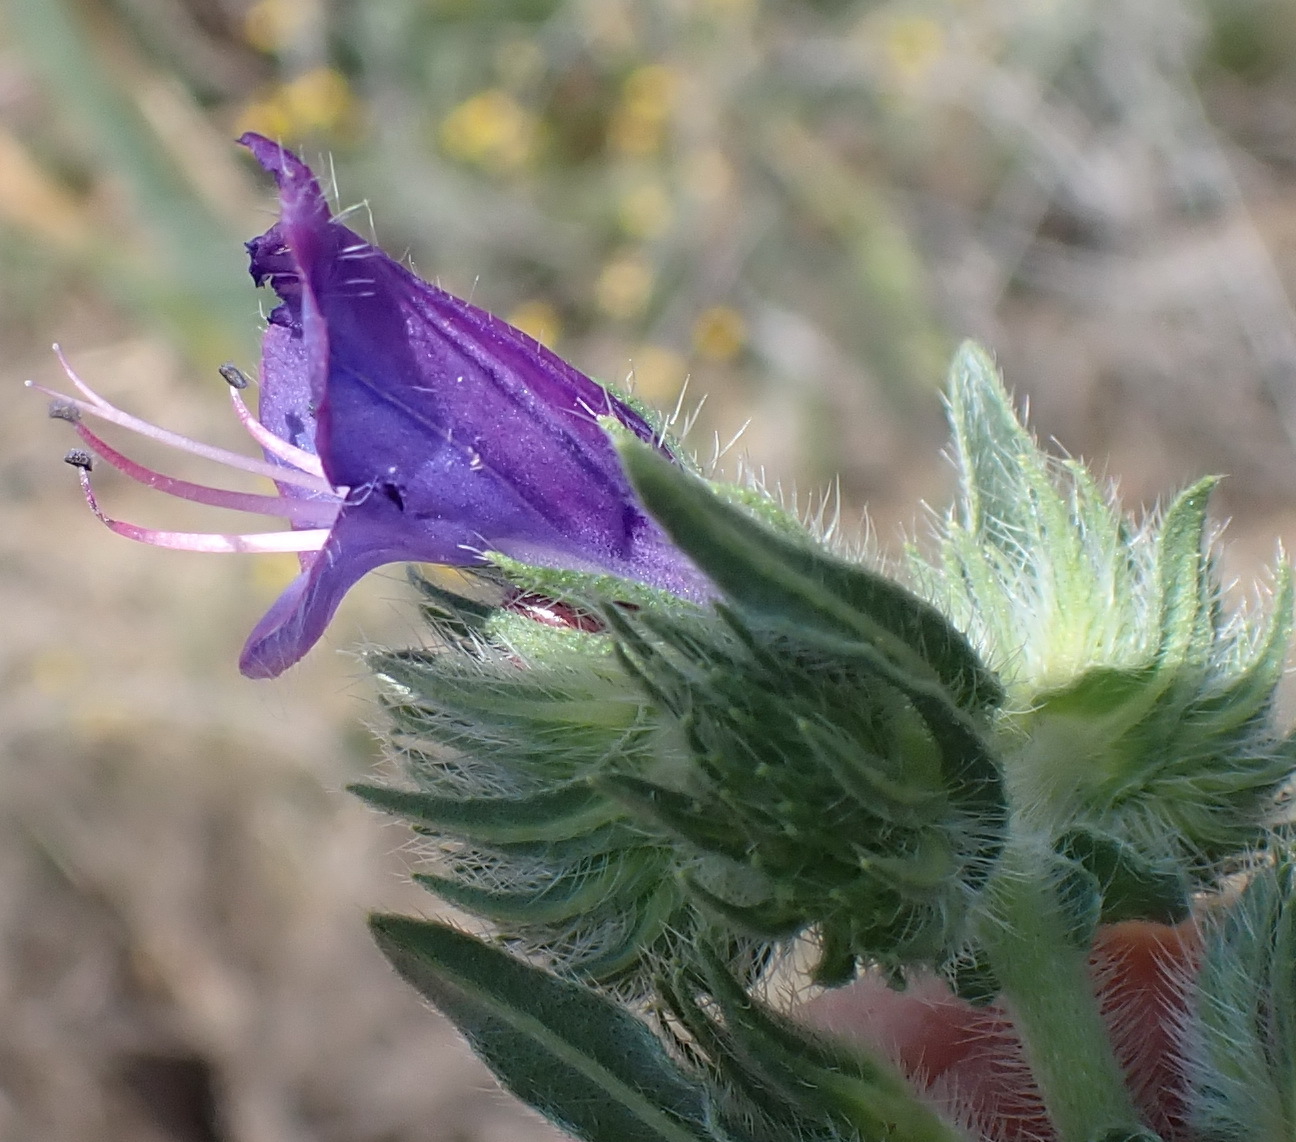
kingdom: Plantae
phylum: Tracheophyta
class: Magnoliopsida
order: Boraginales
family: Boraginaceae
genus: Echium
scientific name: Echium plantagineum
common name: Purple viper's-bugloss
